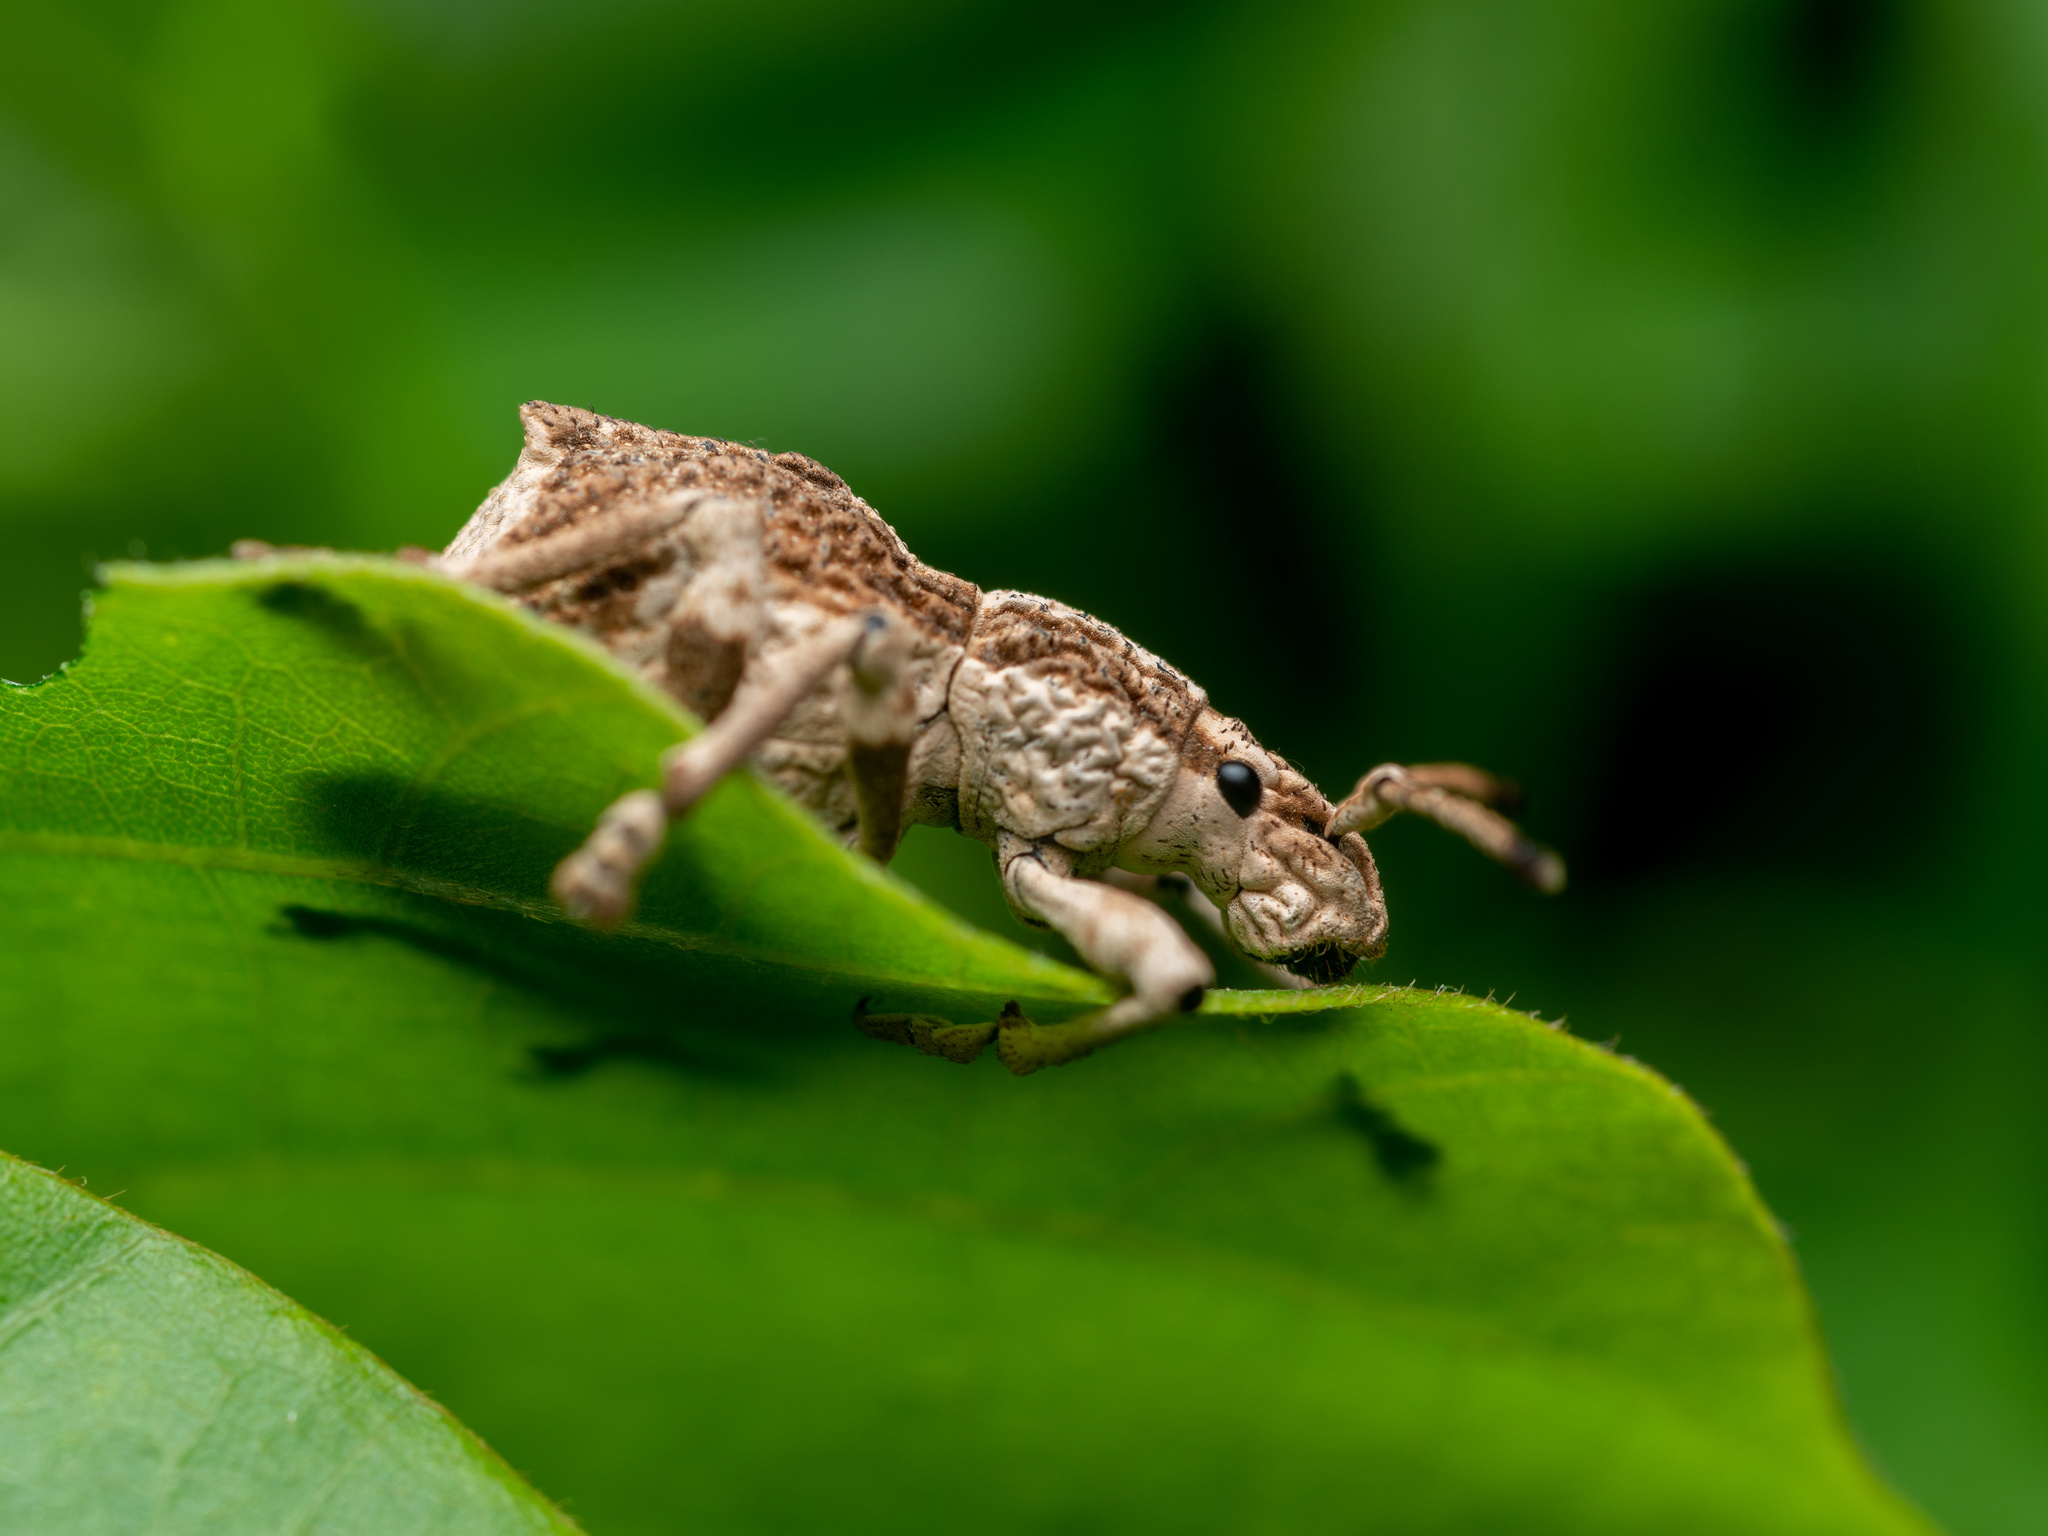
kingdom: Animalia
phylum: Arthropoda
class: Insecta
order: Coleoptera
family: Curculionidae
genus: Episomus
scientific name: Episomus
